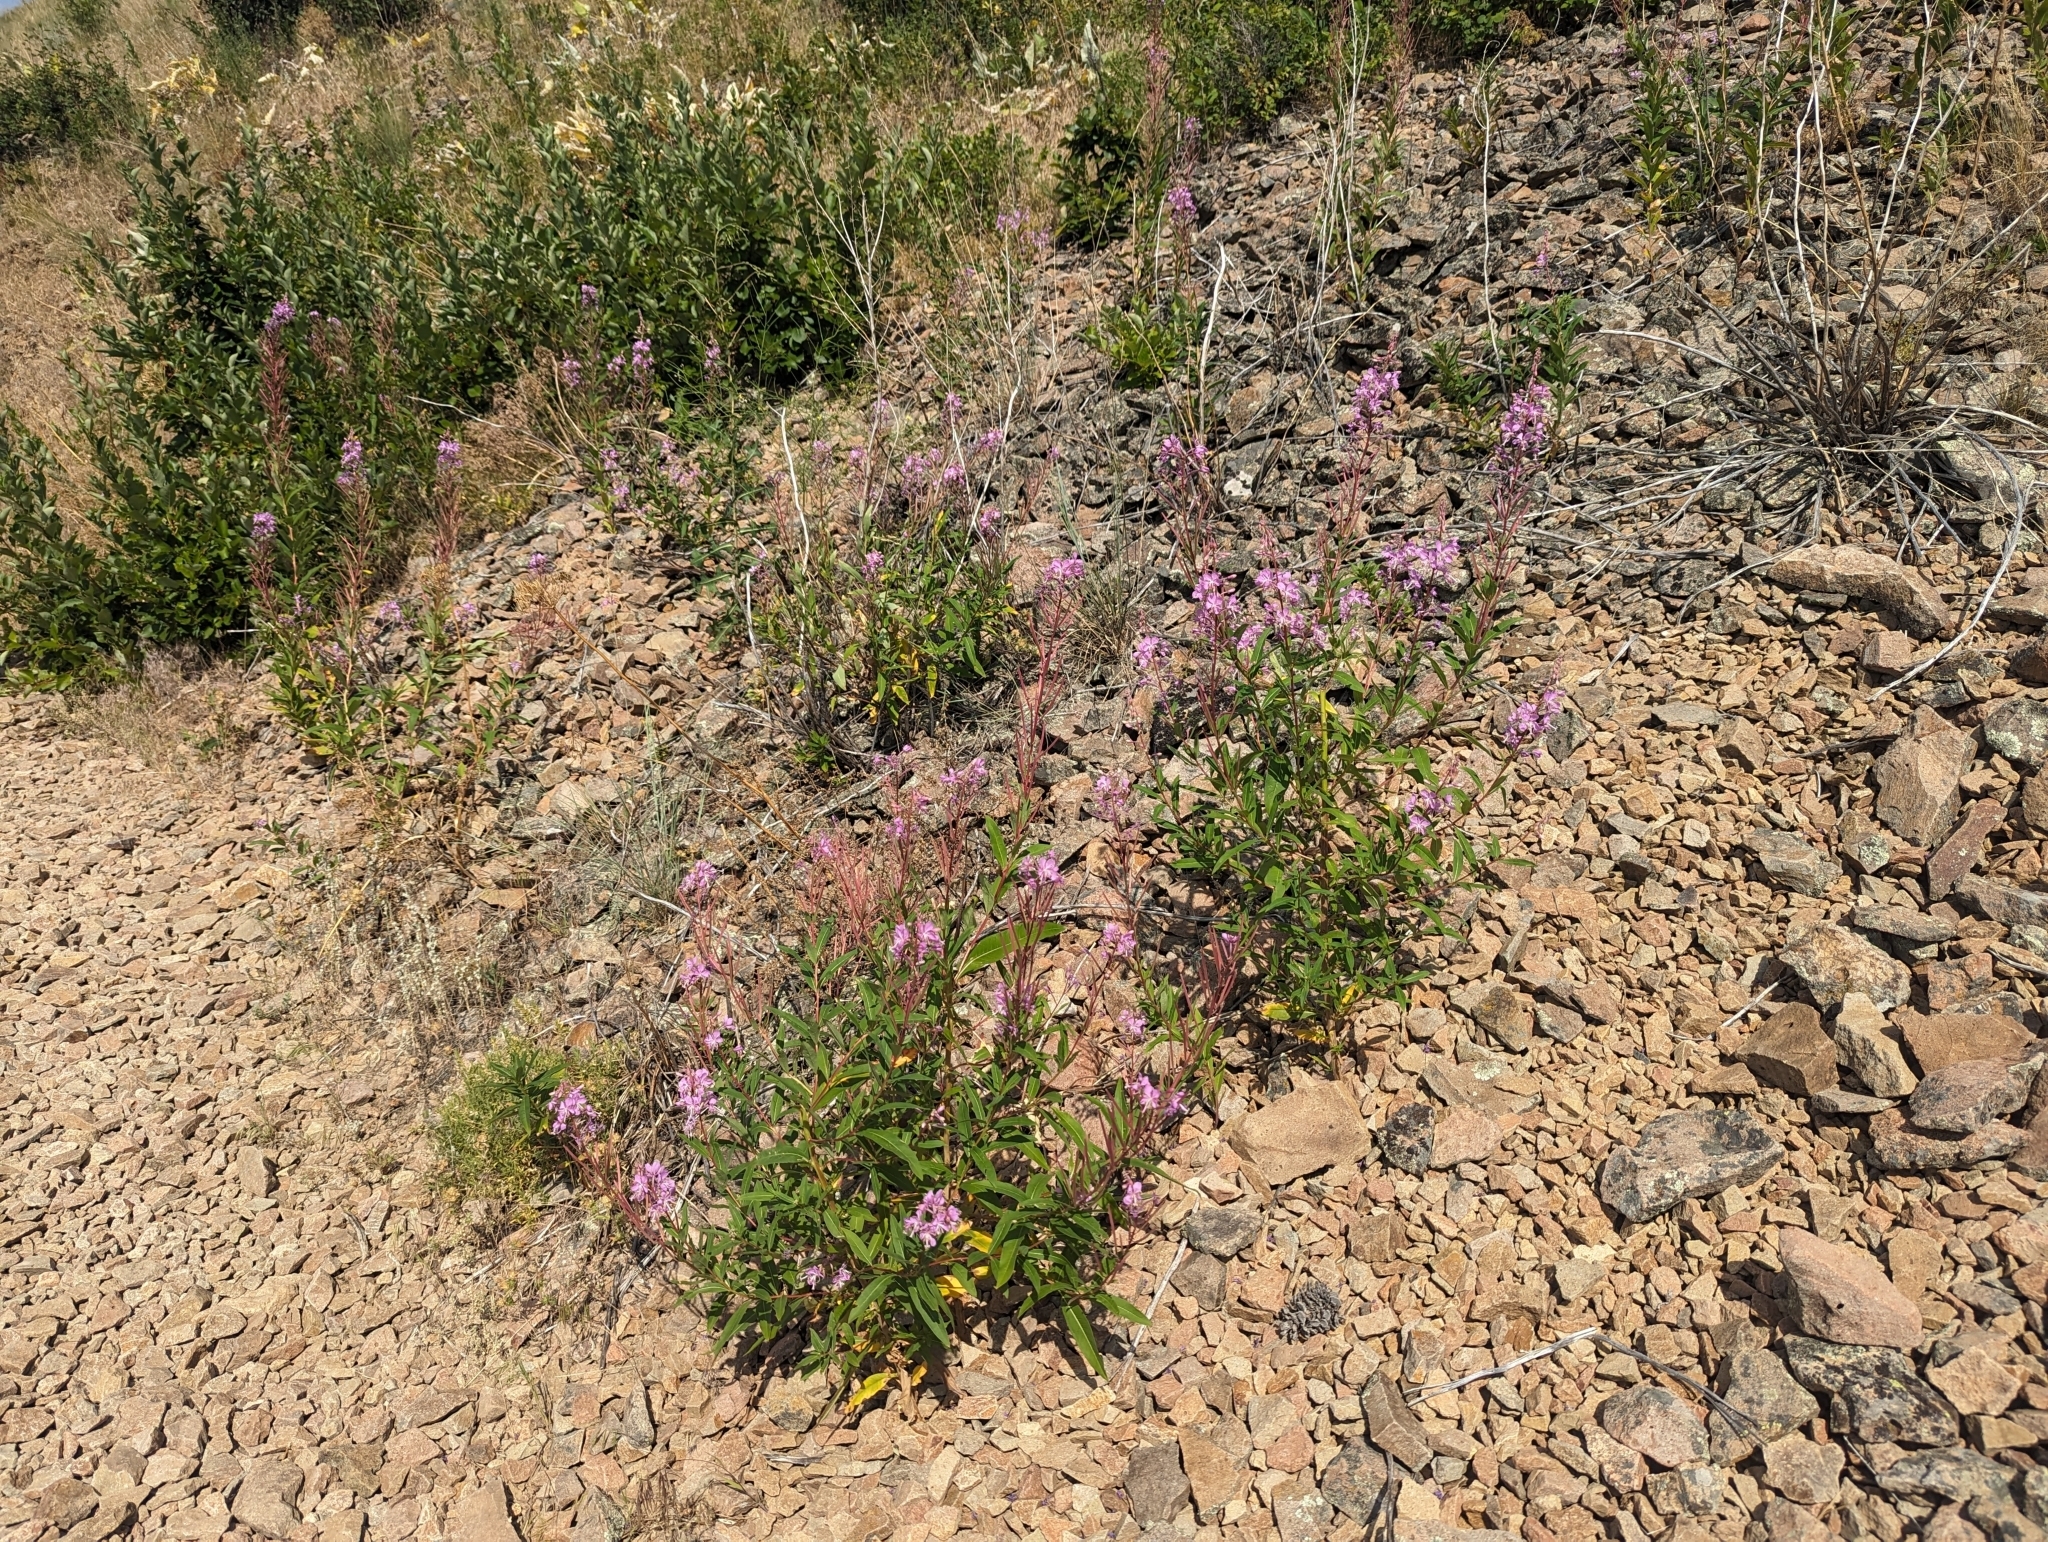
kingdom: Plantae
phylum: Tracheophyta
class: Magnoliopsida
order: Myrtales
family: Onagraceae
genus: Chamaenerion
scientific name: Chamaenerion angustifolium
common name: Fireweed
